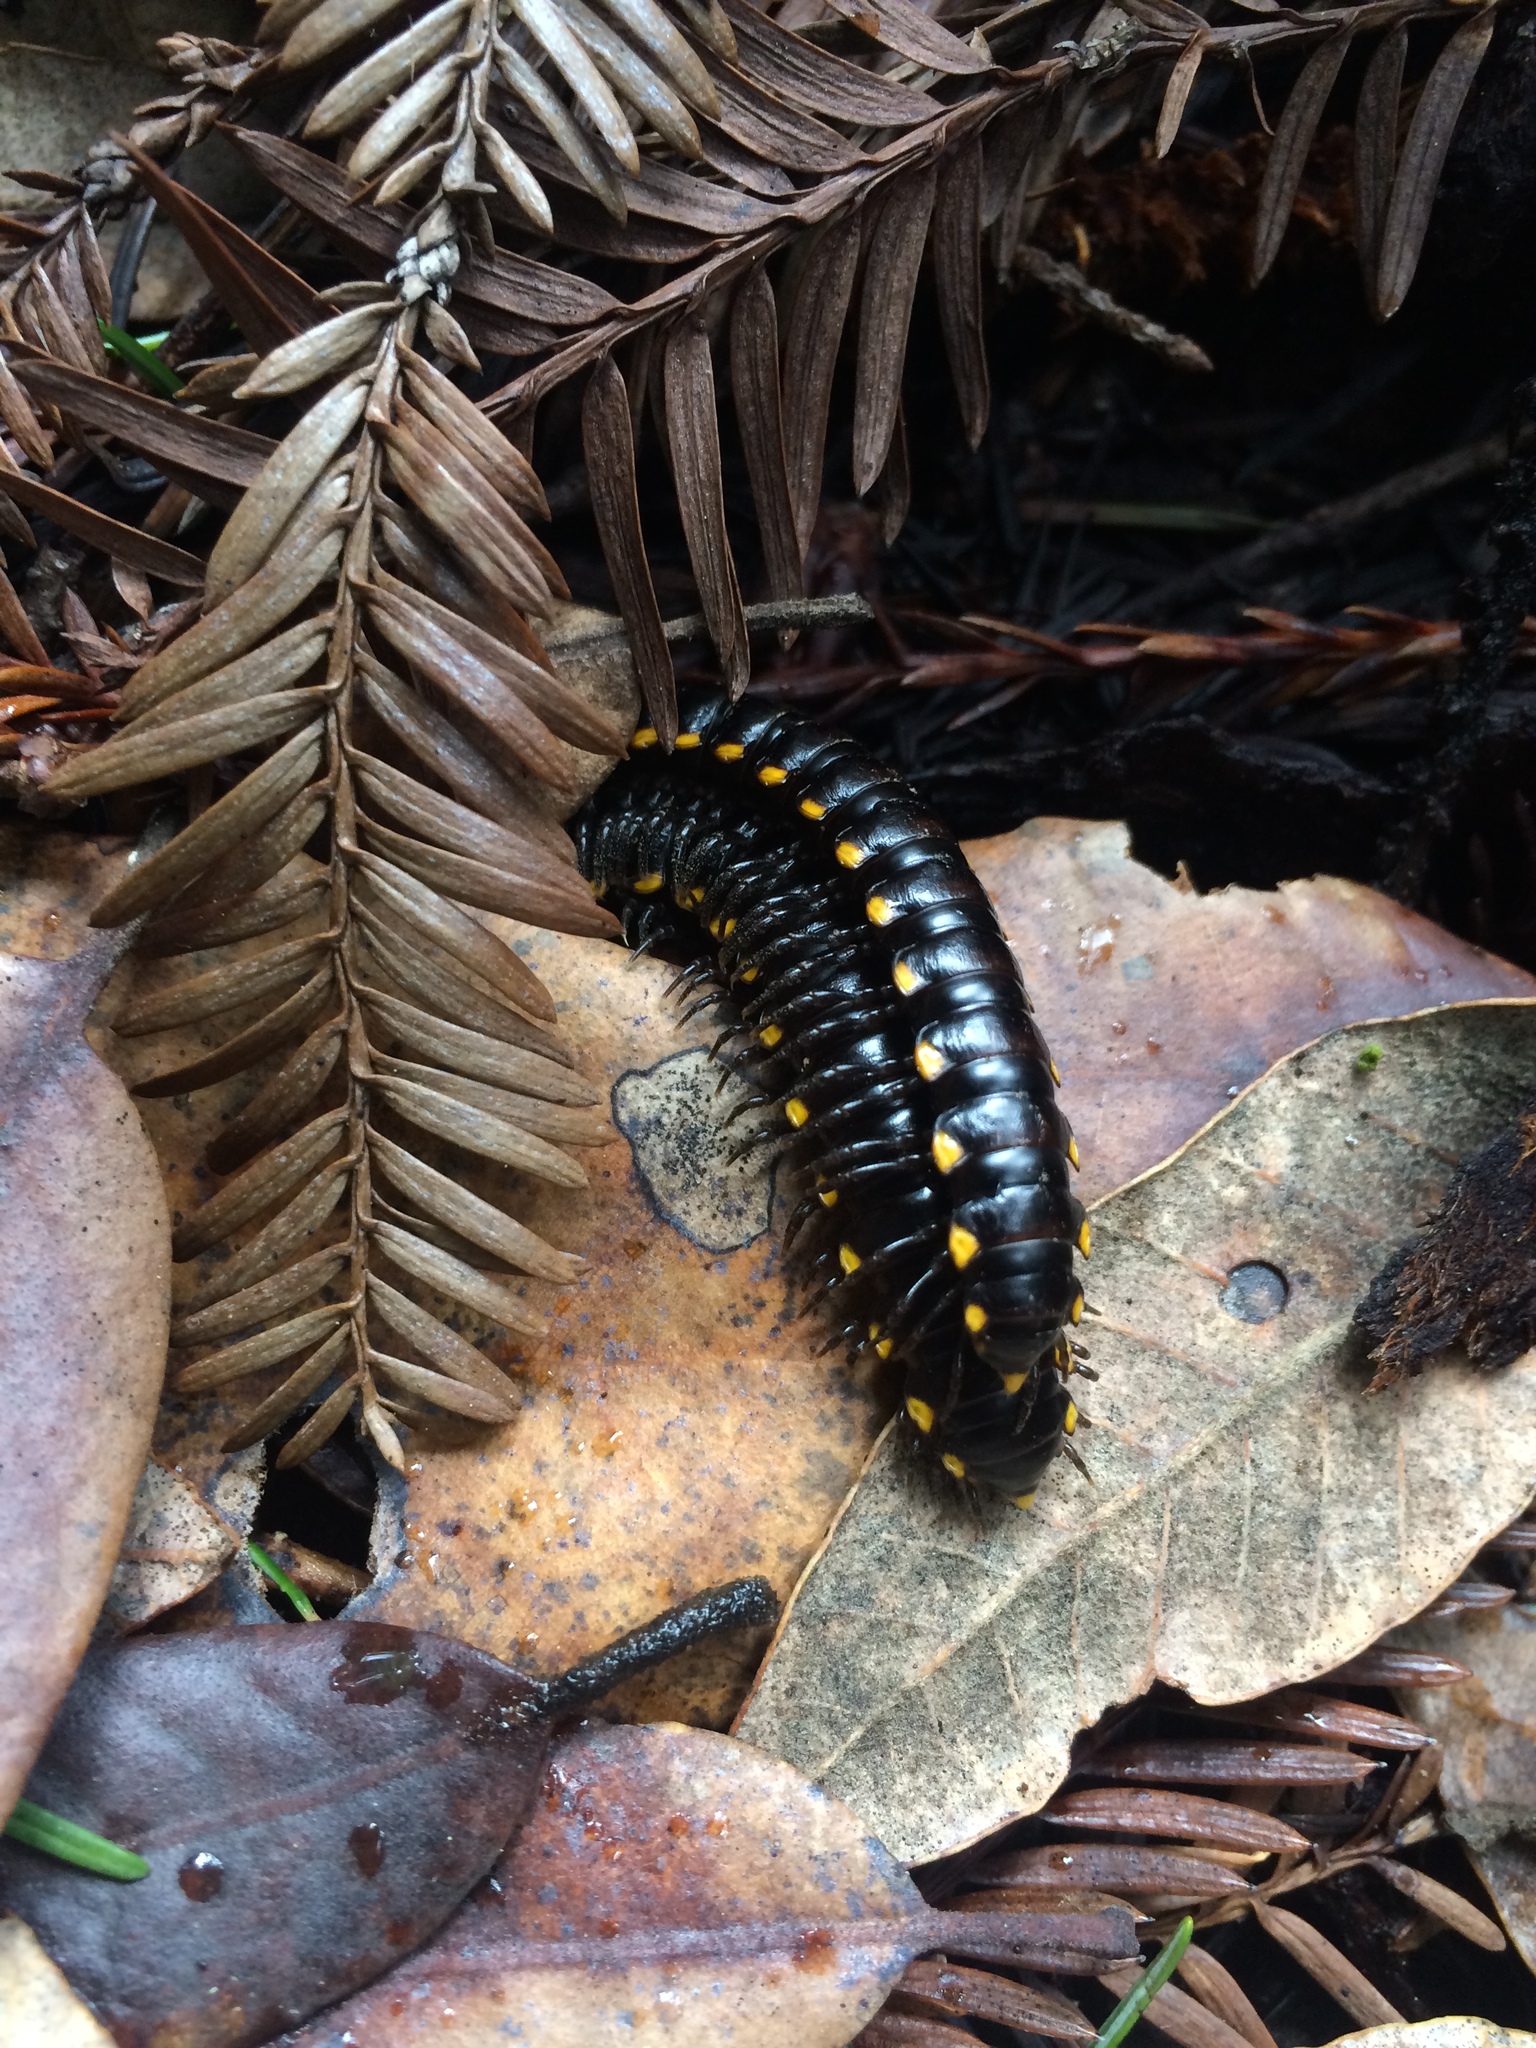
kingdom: Animalia
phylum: Arthropoda
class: Diplopoda
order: Polydesmida
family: Xystodesmidae
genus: Harpaphe
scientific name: Harpaphe haydeniana
